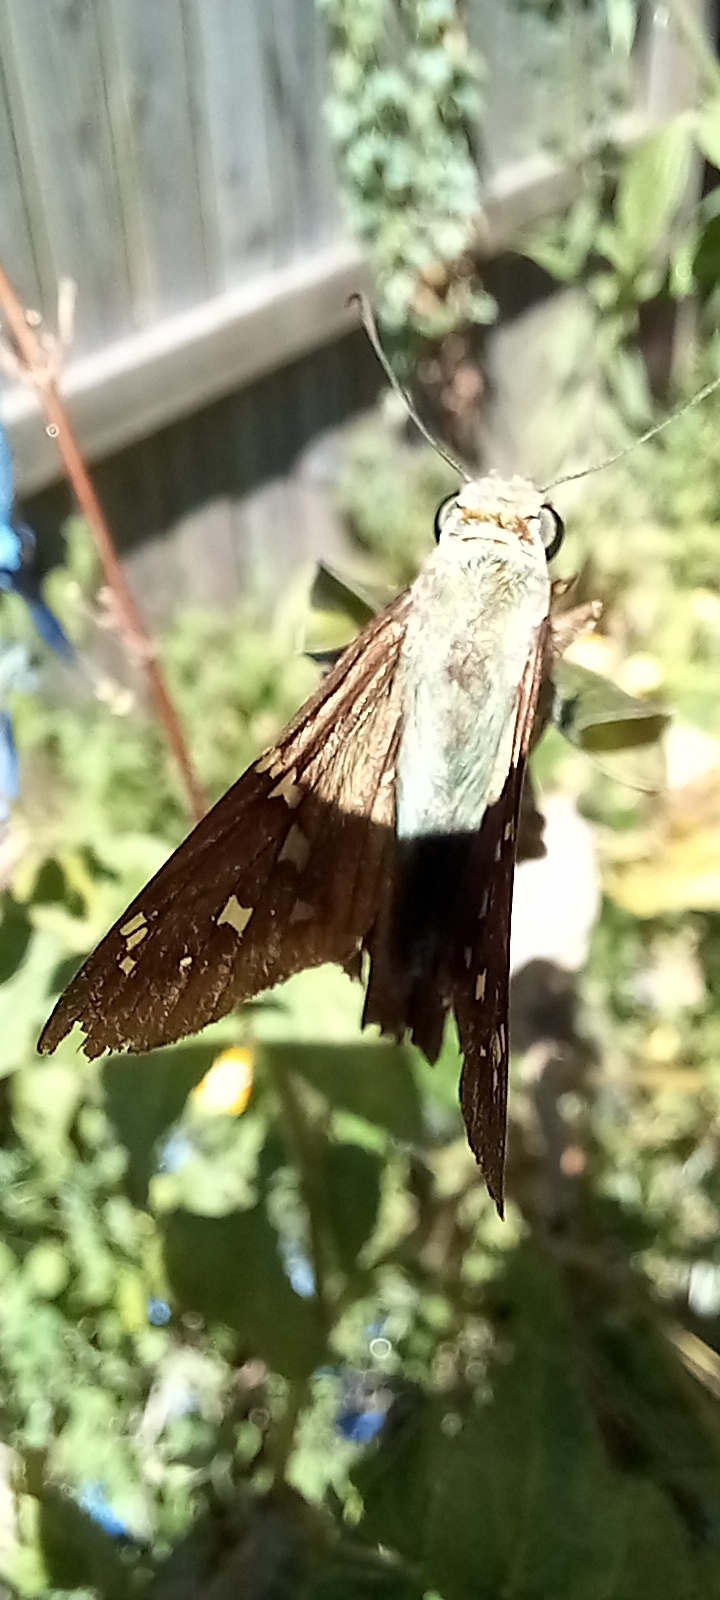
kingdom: Animalia
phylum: Arthropoda
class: Insecta
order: Lepidoptera
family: Hesperiidae
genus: Urbanus
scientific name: Urbanus proteus
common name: Long-tailed skipper
